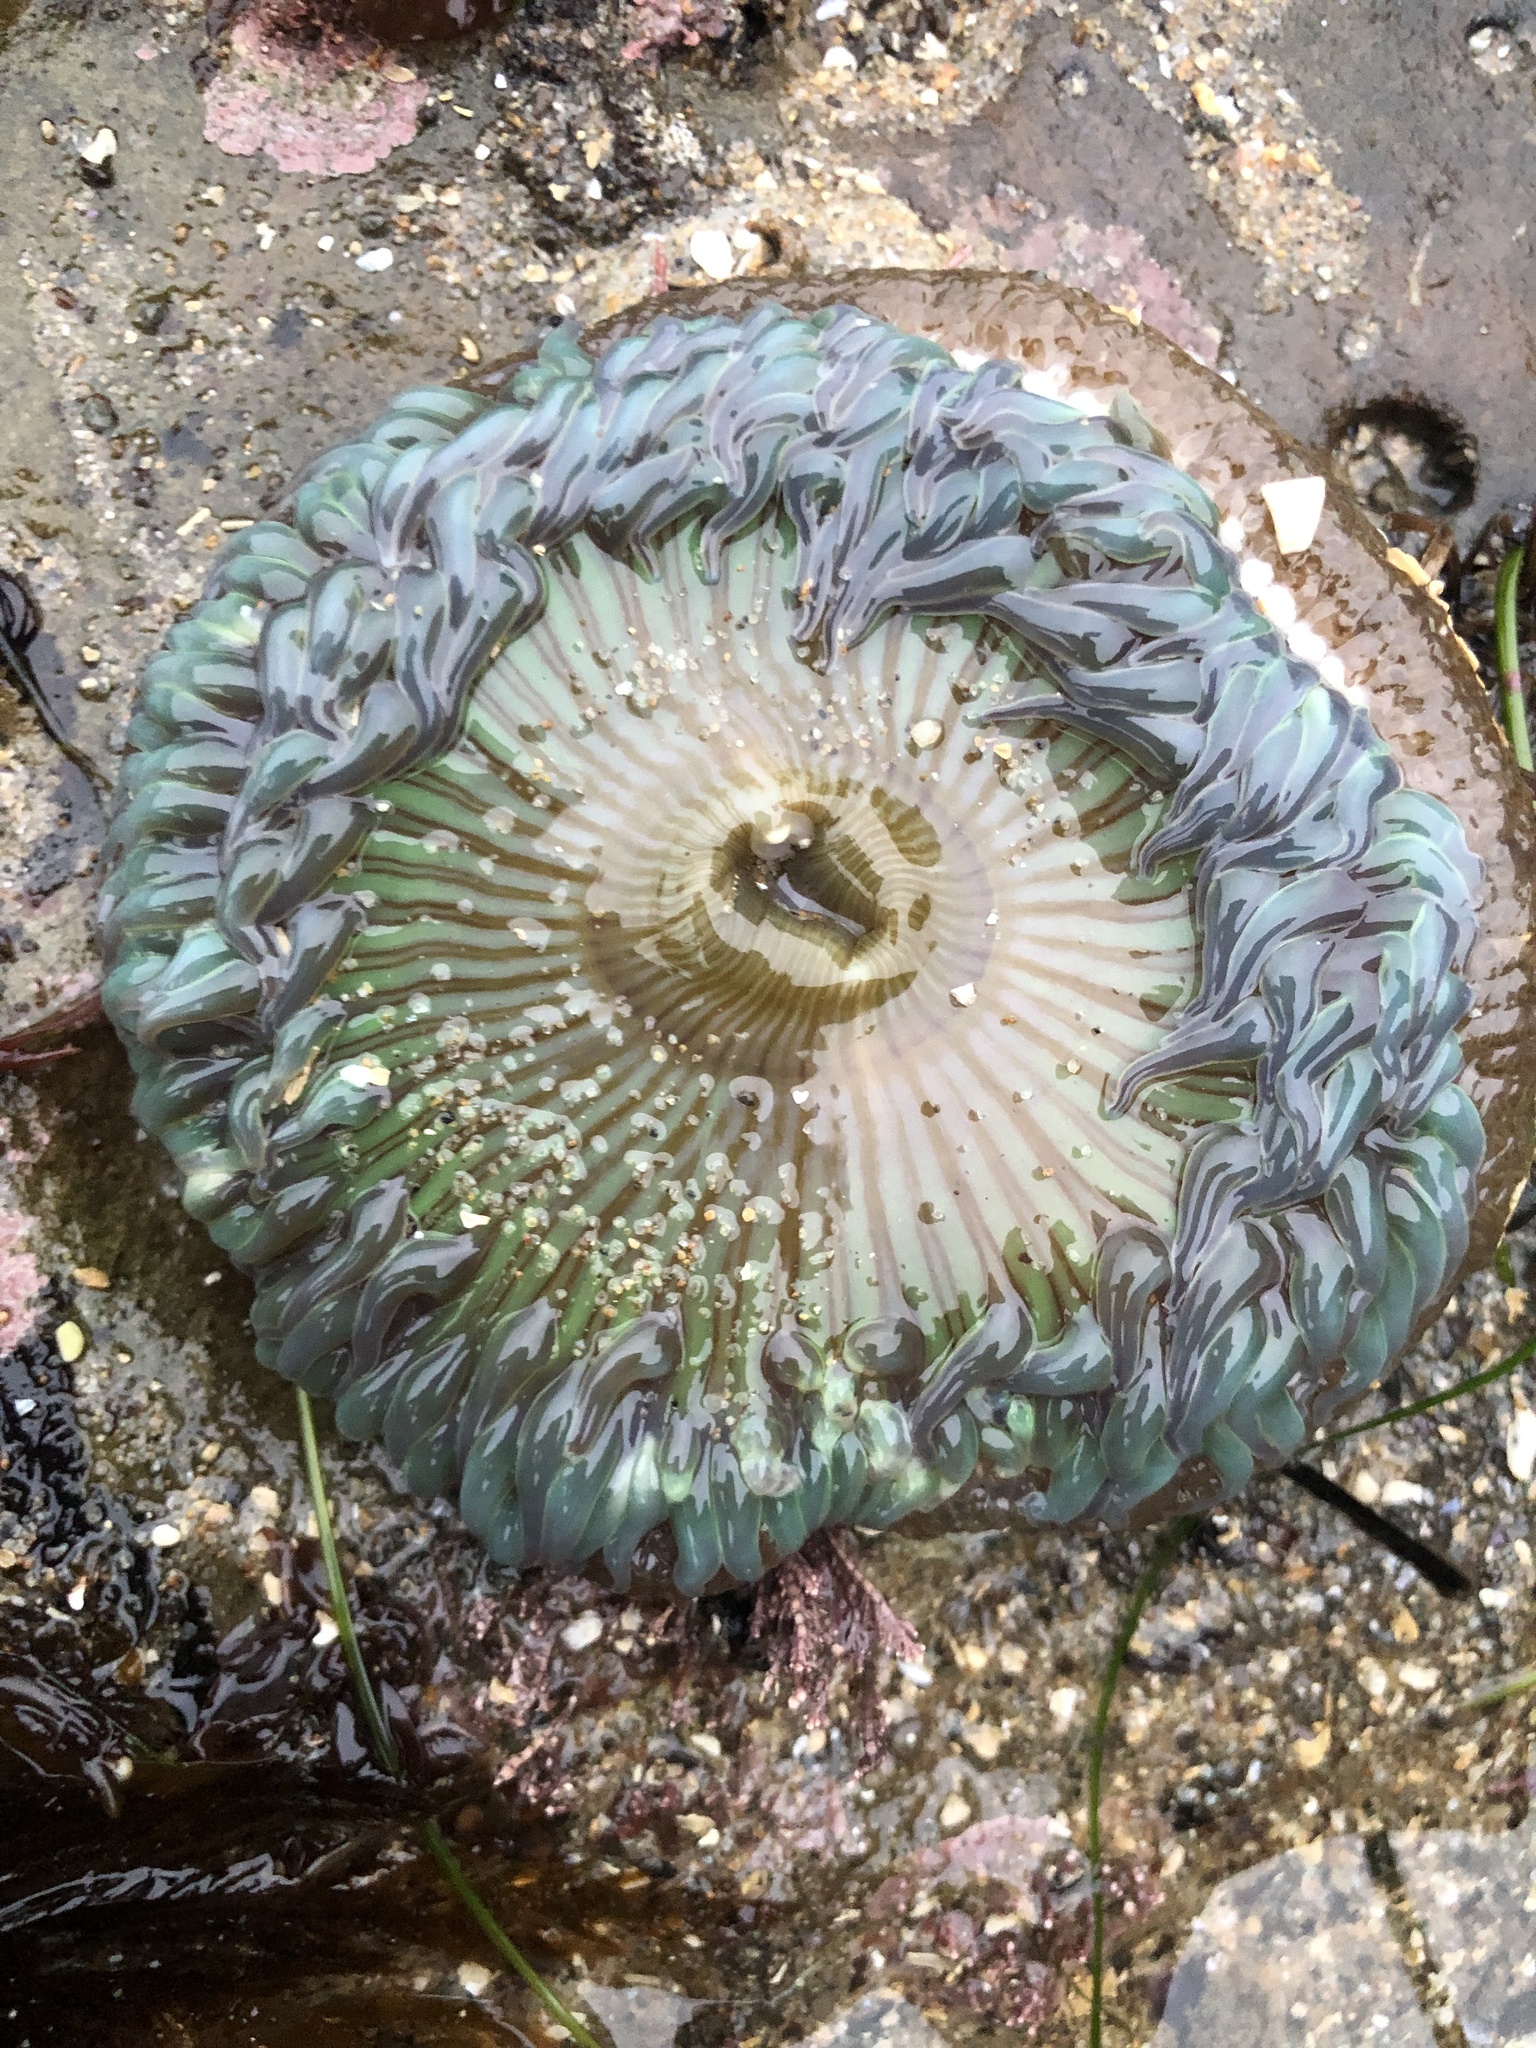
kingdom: Animalia
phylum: Cnidaria
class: Anthozoa
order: Actiniaria
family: Actiniidae
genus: Anthopleura
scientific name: Anthopleura sola
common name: Sun anemone
